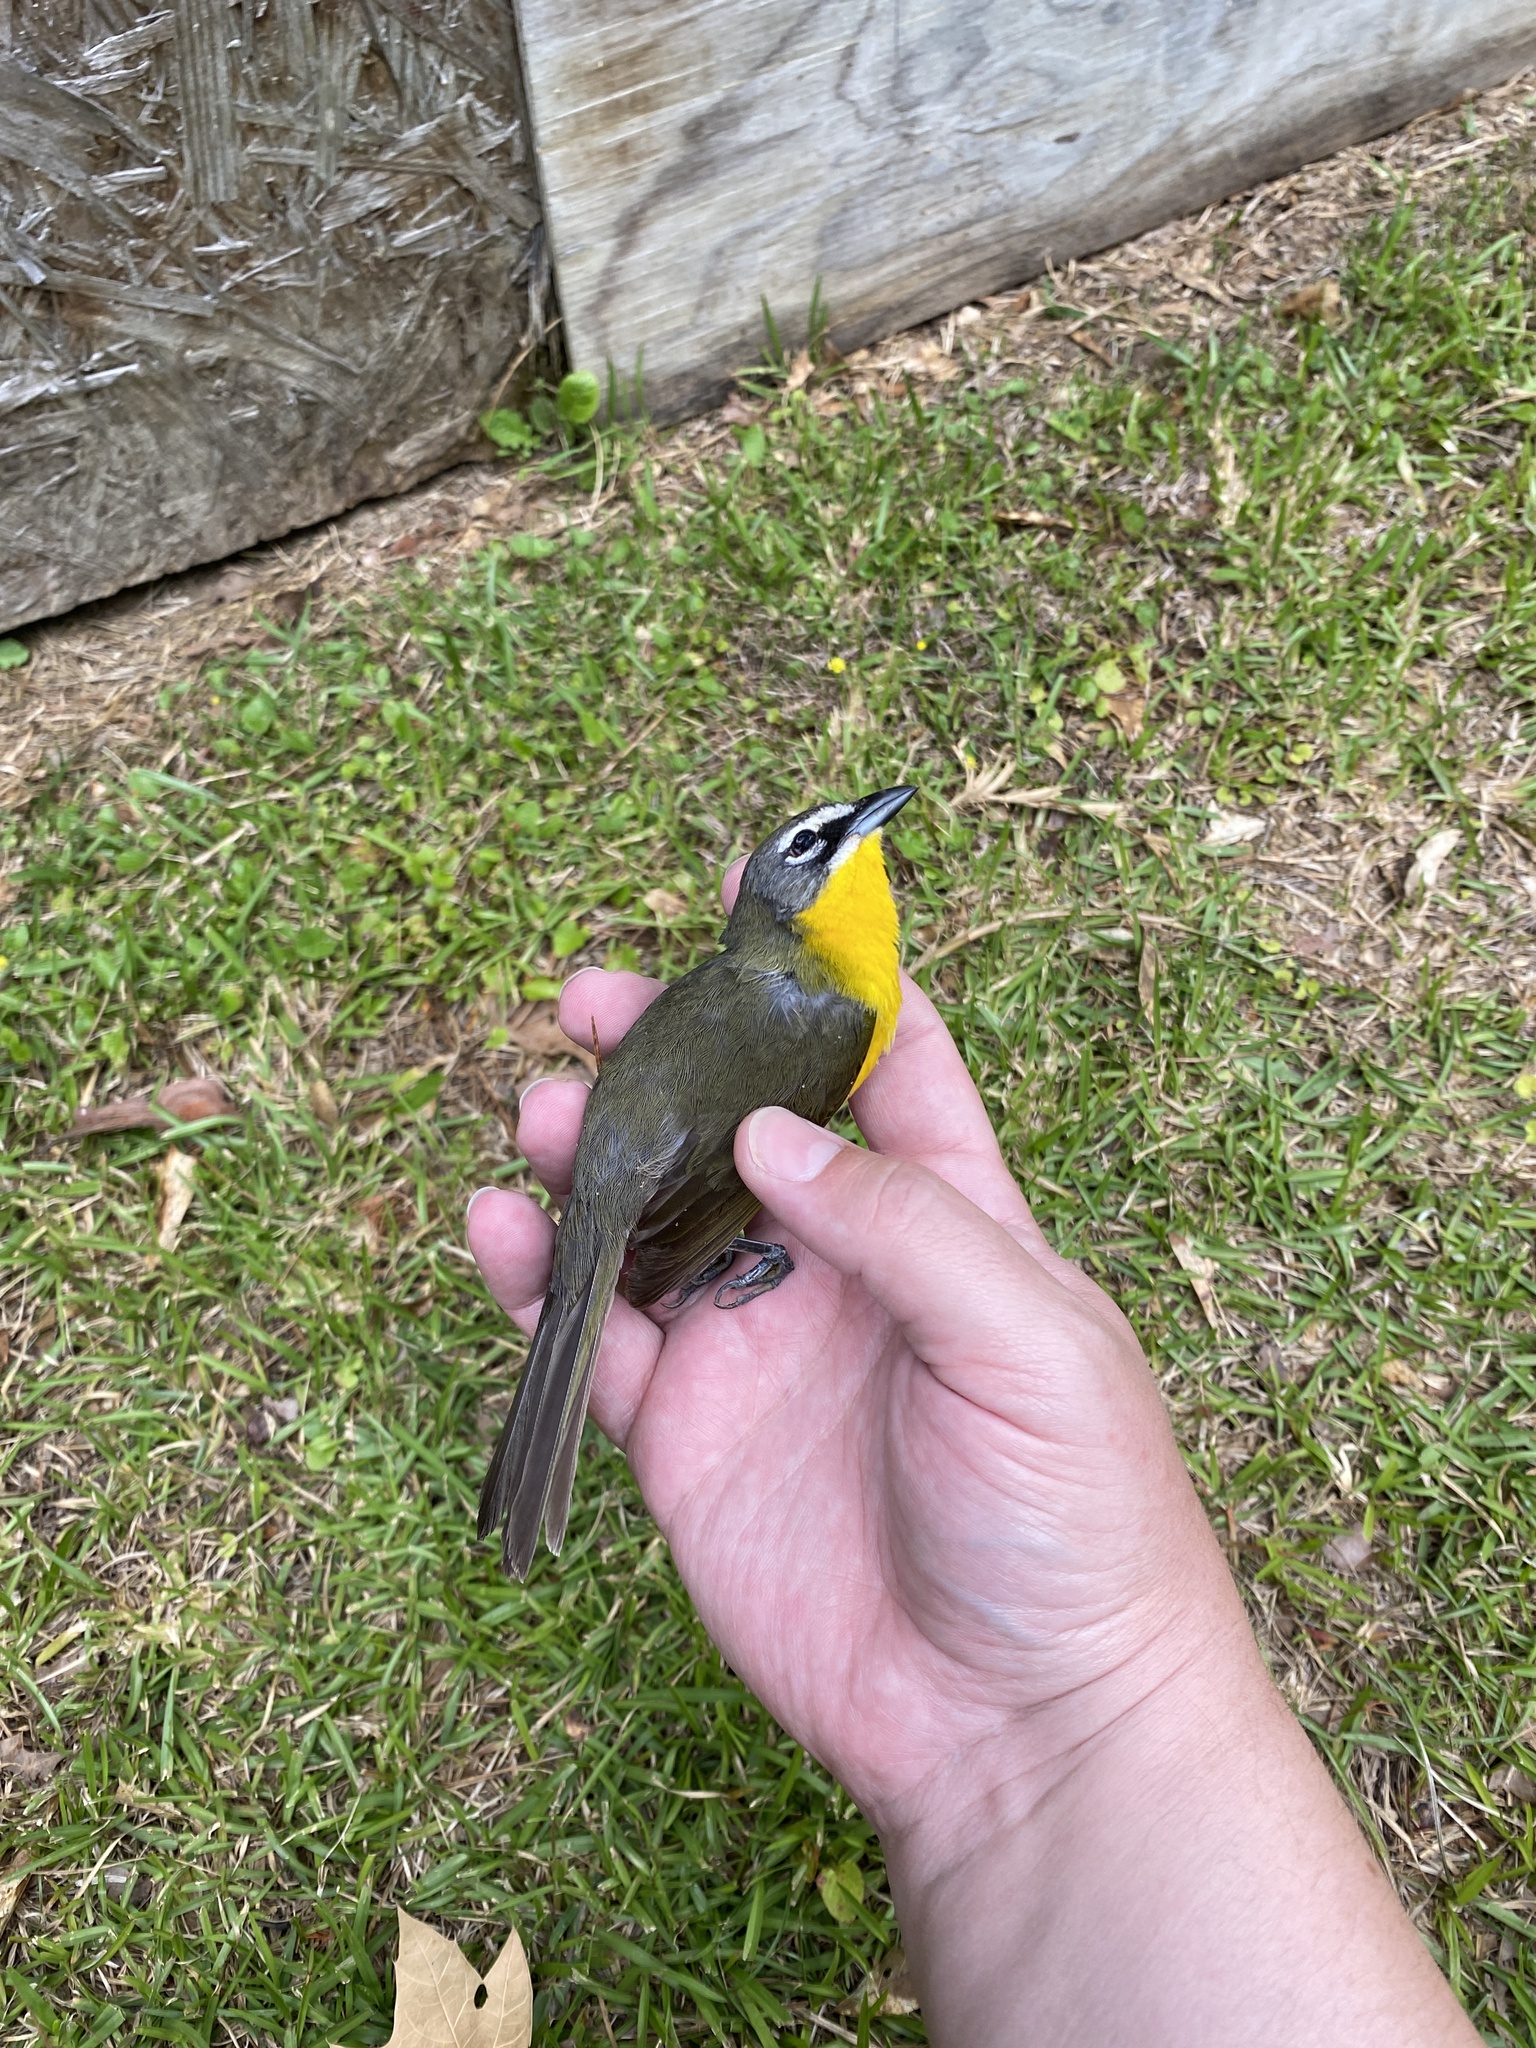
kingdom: Animalia
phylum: Chordata
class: Aves
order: Passeriformes
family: Parulidae
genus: Icteria
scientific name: Icteria virens
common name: Yellow-breasted chat
